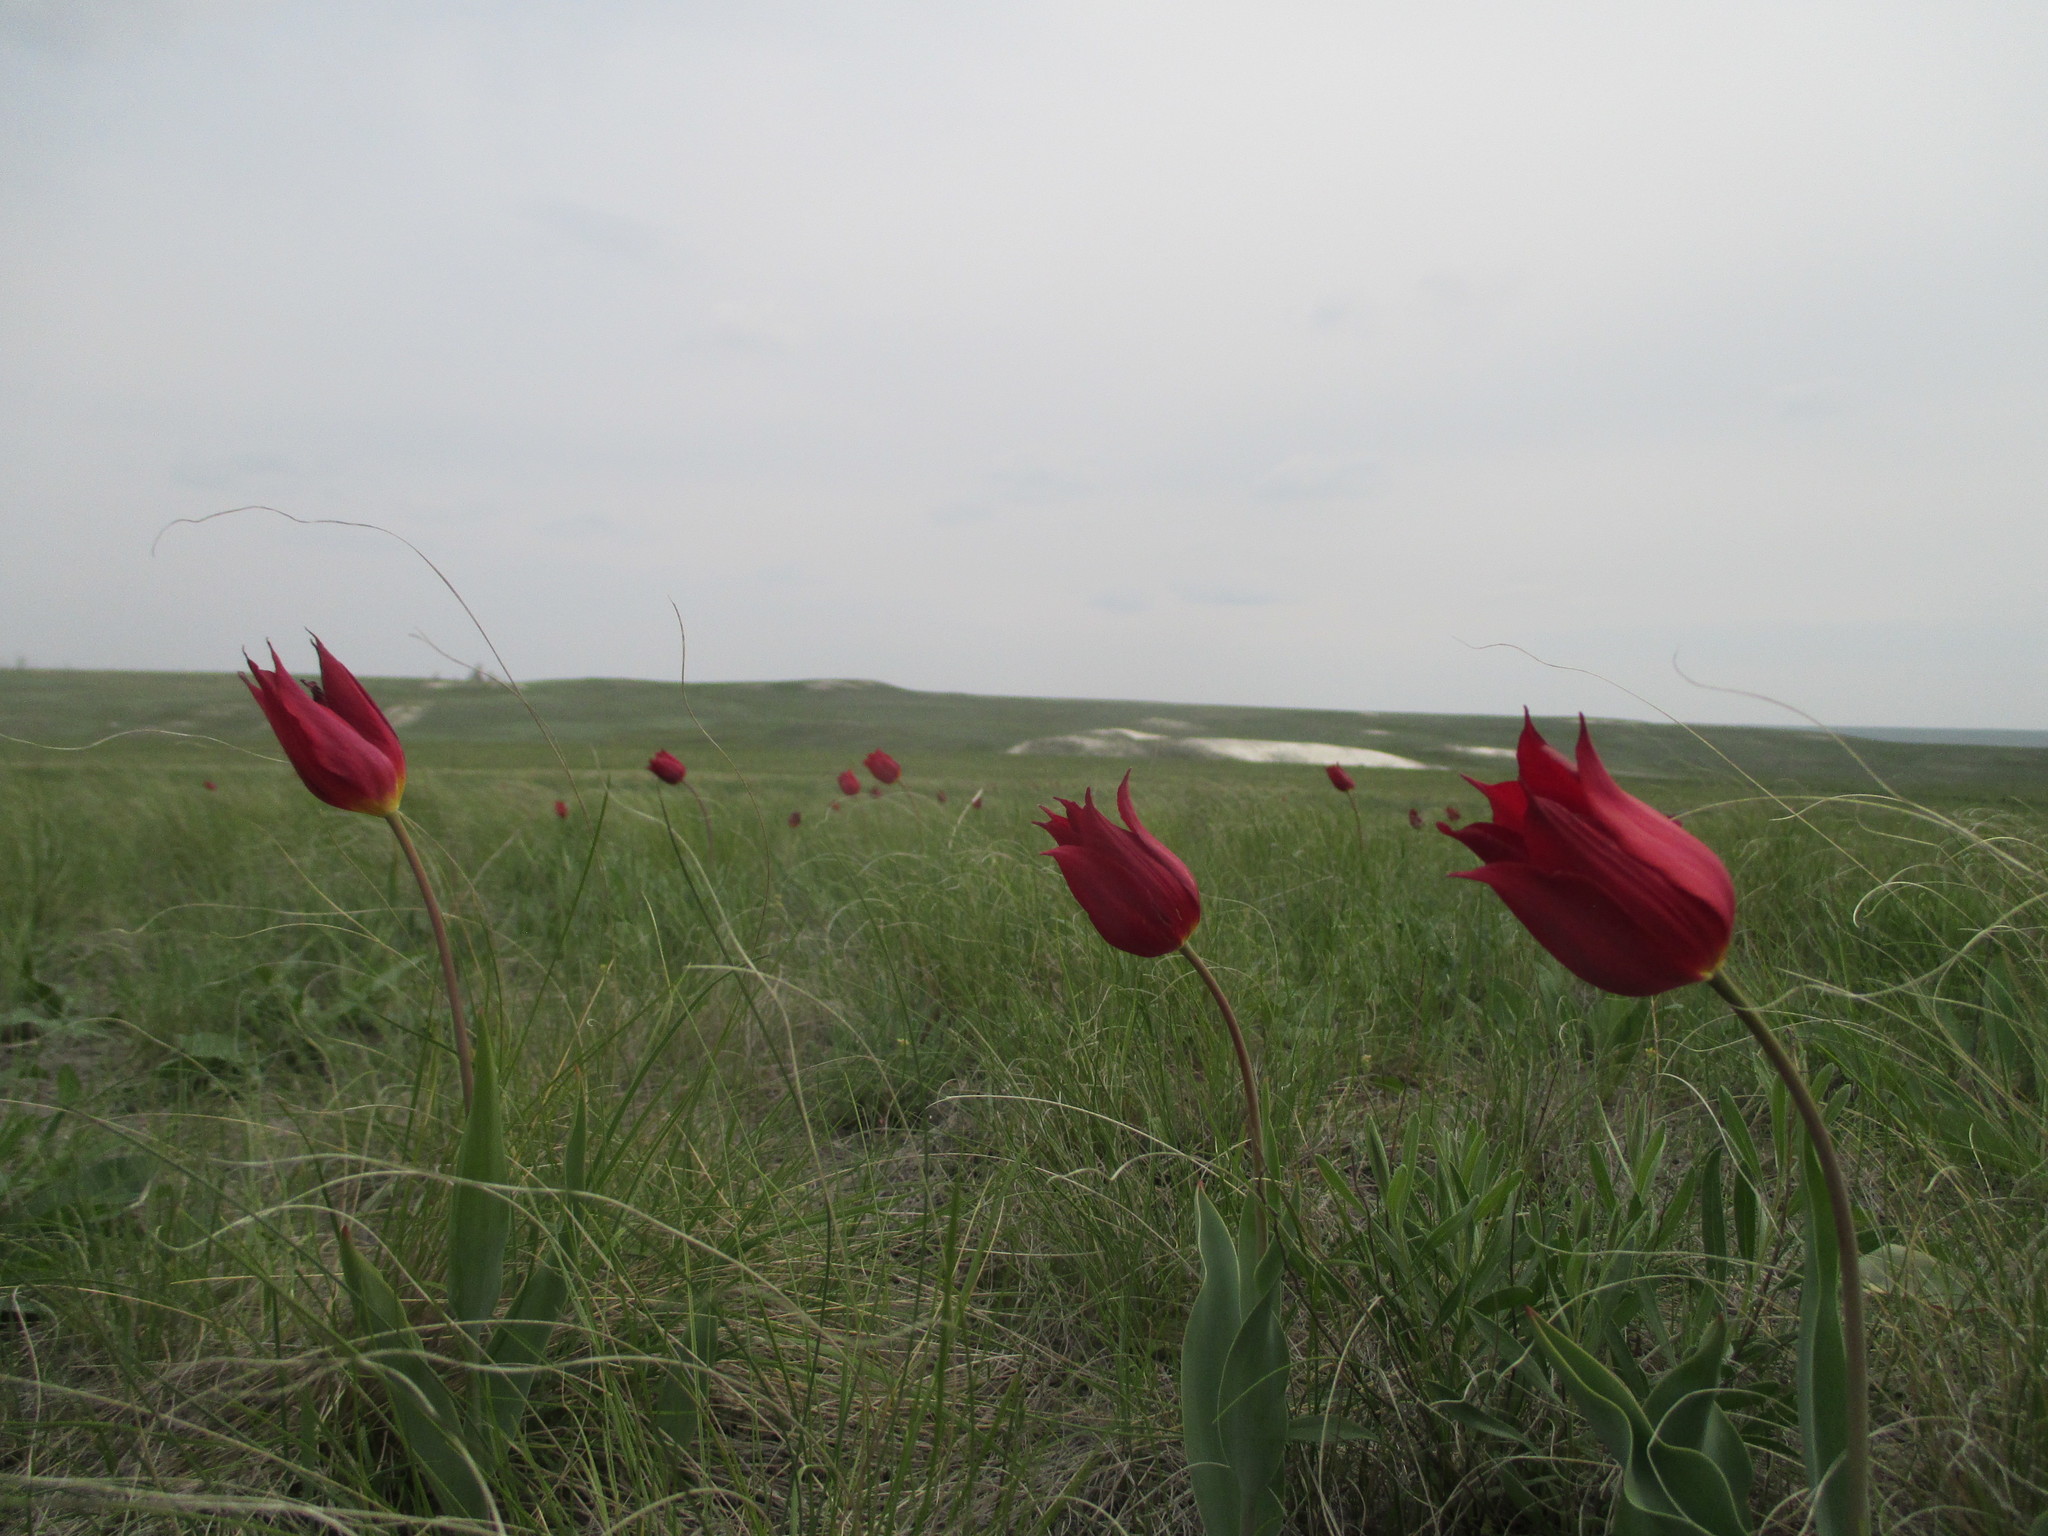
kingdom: Plantae
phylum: Tracheophyta
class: Liliopsida
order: Liliales
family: Liliaceae
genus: Tulipa
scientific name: Tulipa suaveolens
